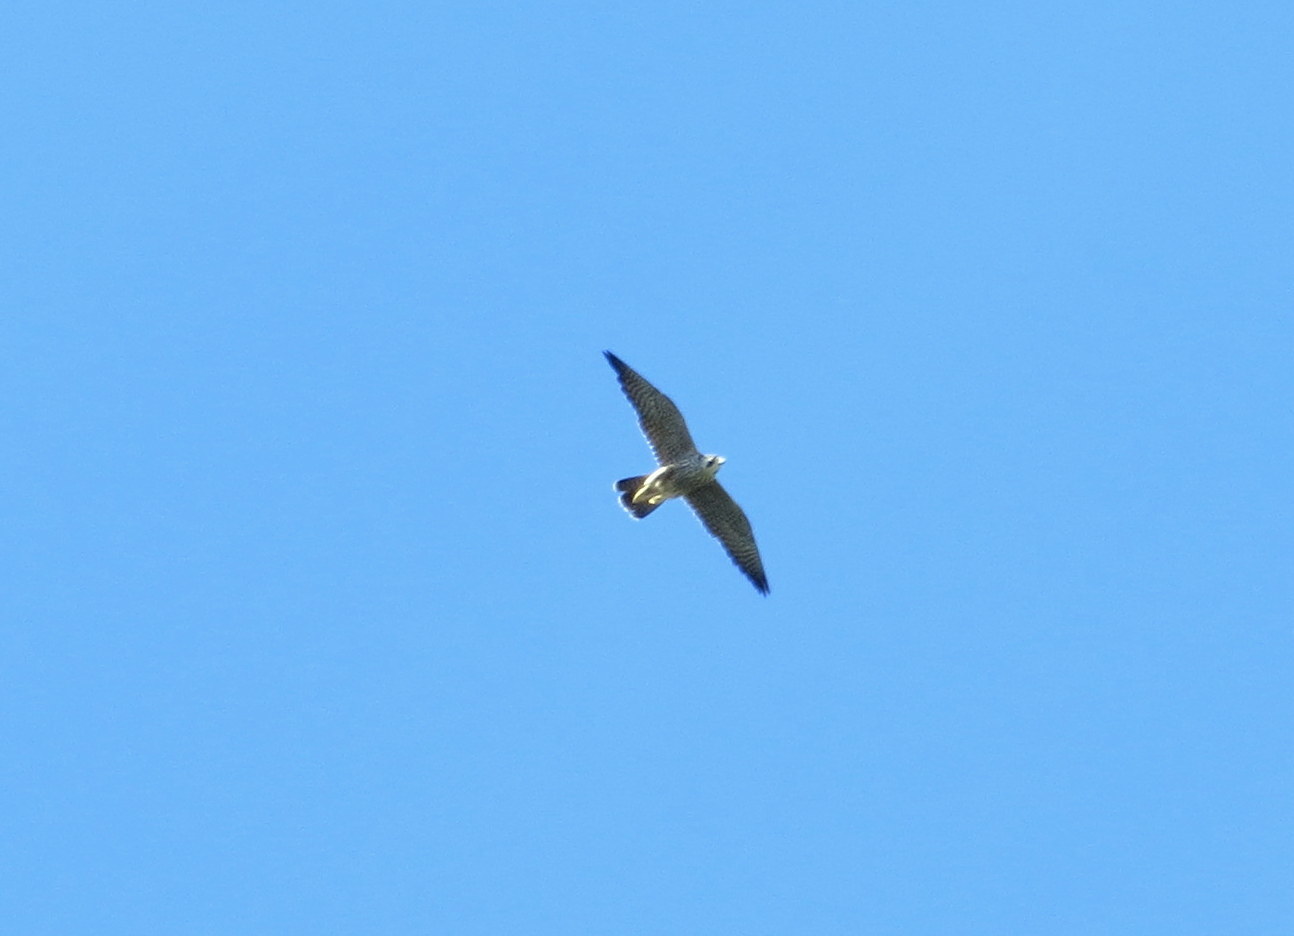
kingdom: Animalia
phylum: Chordata
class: Aves
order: Falconiformes
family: Falconidae
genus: Falco
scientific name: Falco peregrinus
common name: Peregrine falcon
